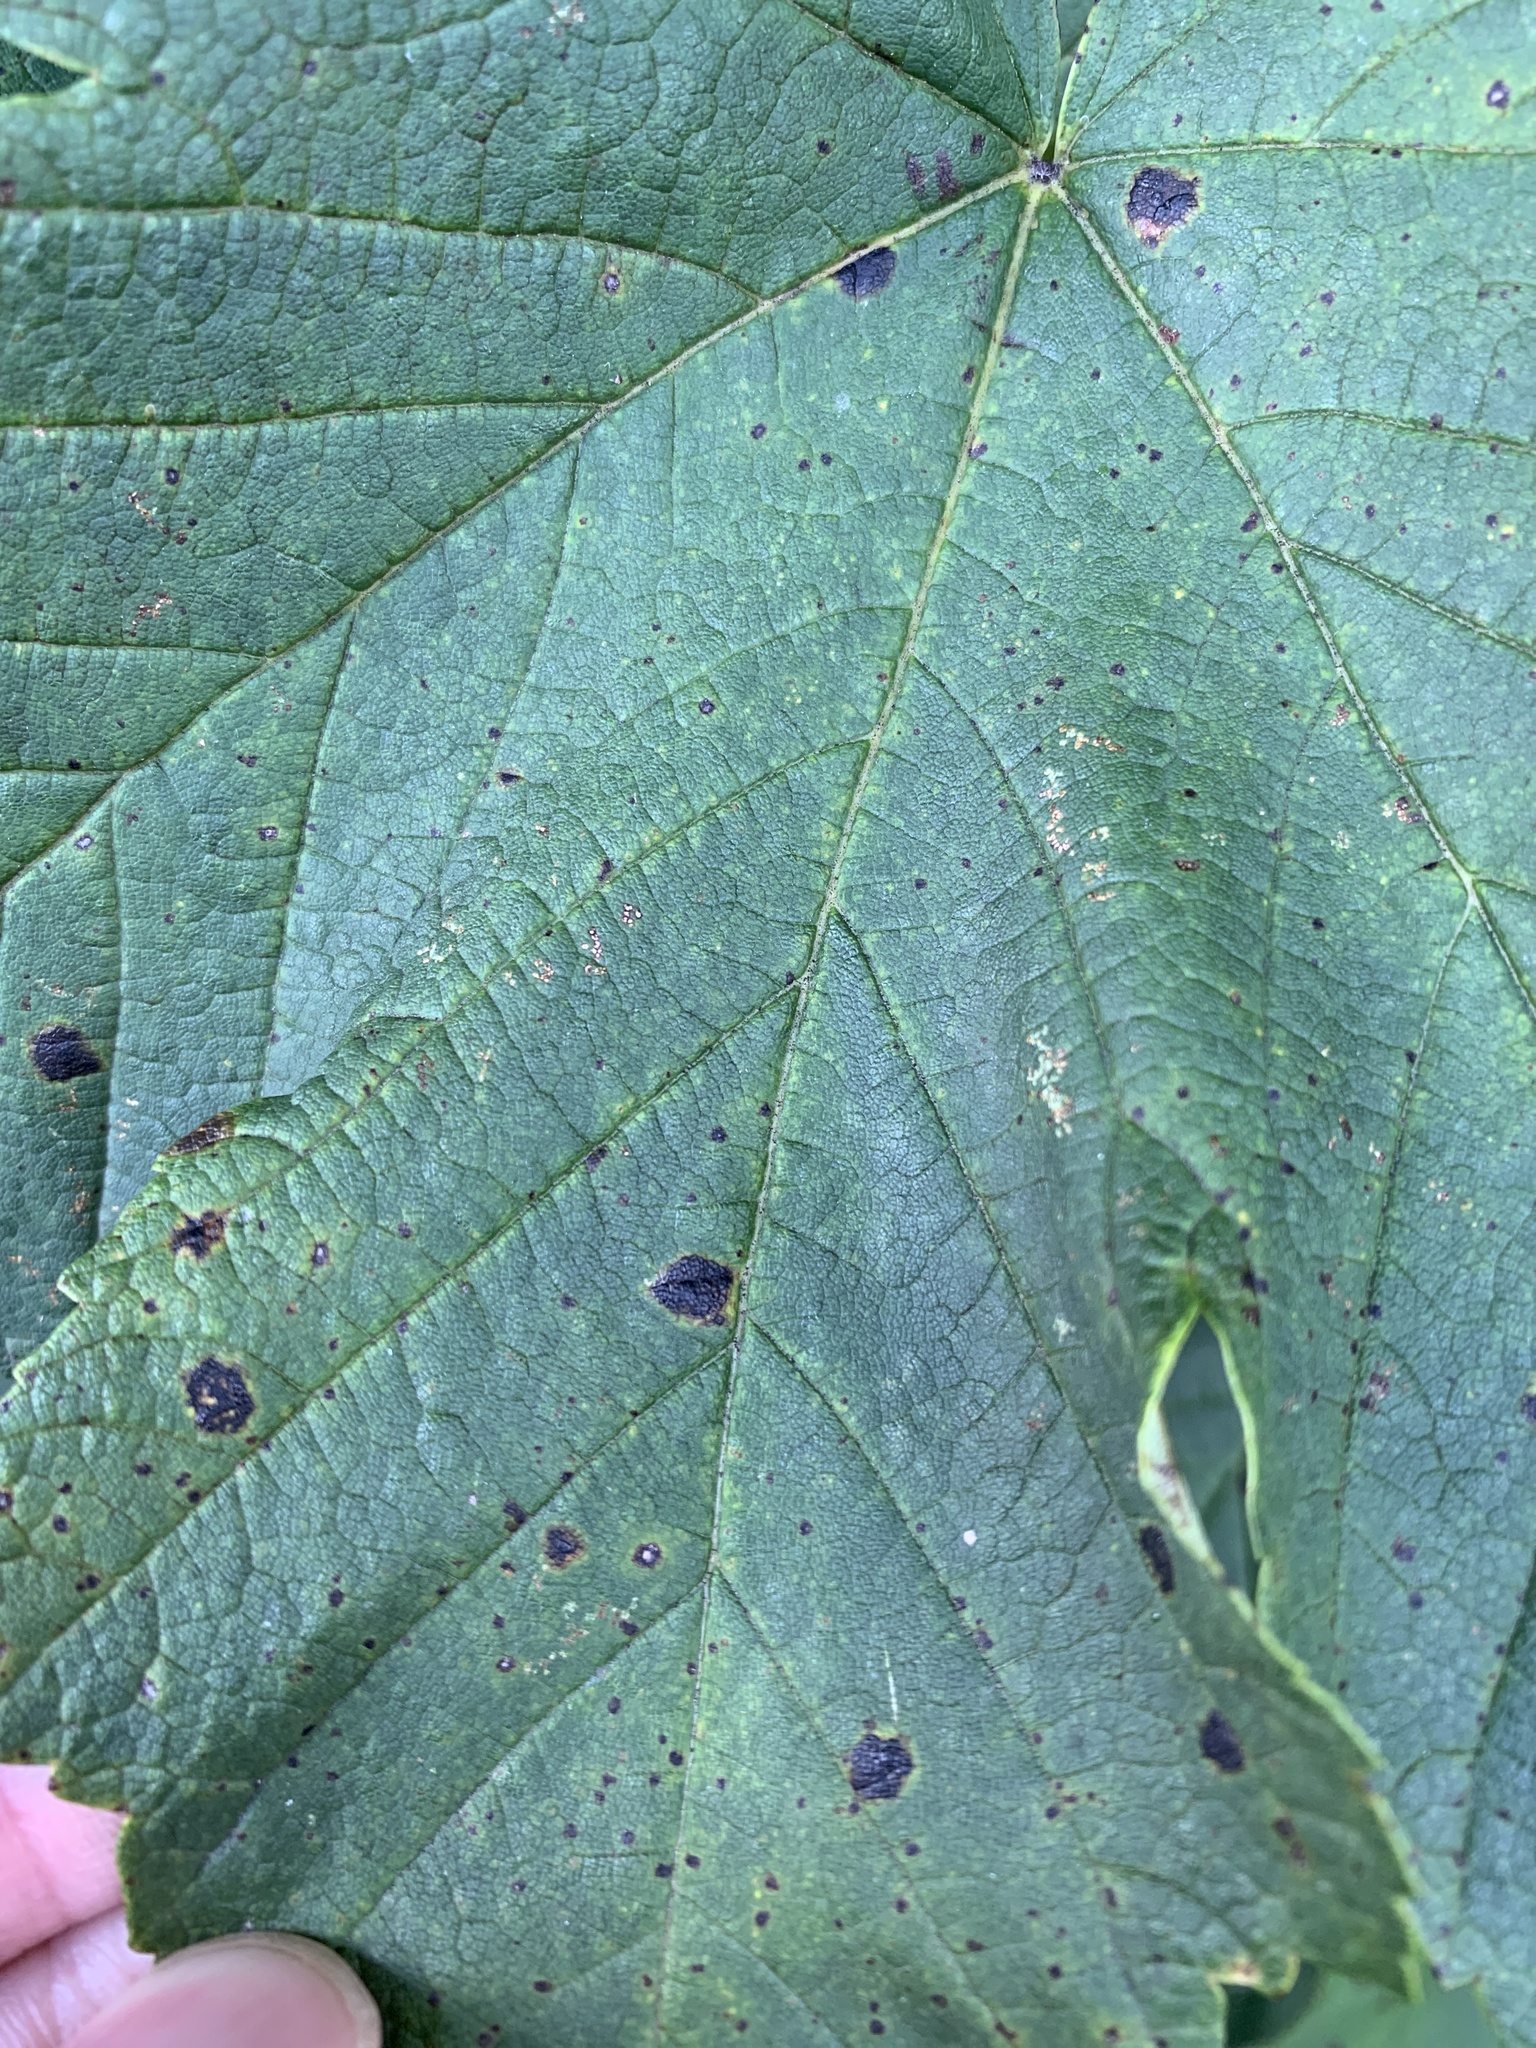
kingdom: Fungi
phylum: Ascomycota
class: Leotiomycetes
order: Rhytismatales
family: Rhytismataceae
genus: Rhytisma
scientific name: Rhytisma acerinum
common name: European tar spot
